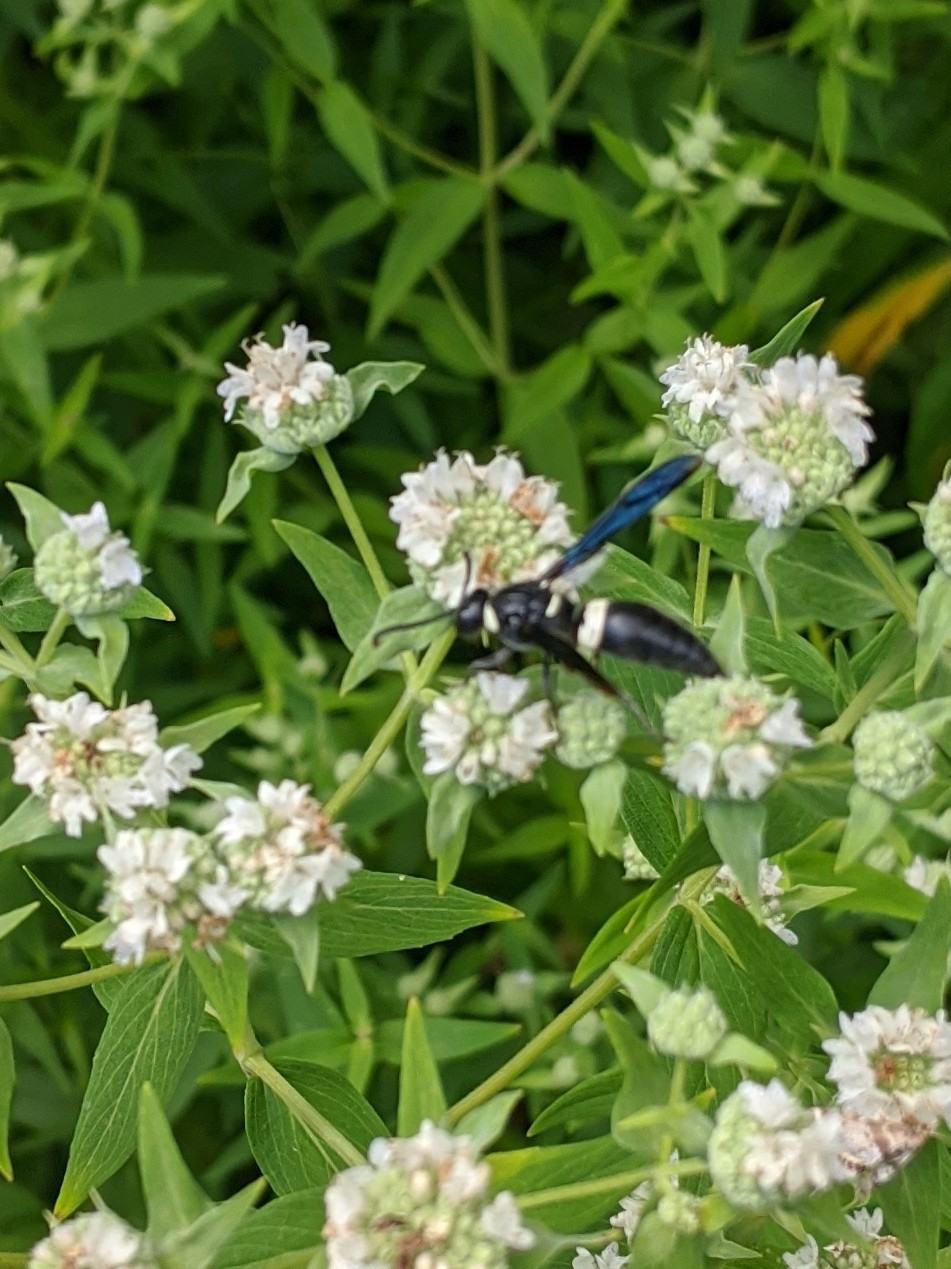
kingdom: Animalia
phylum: Arthropoda
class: Insecta
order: Hymenoptera
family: Eumenidae
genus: Monobia
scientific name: Monobia quadridens
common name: Four-toothed mason wasp
